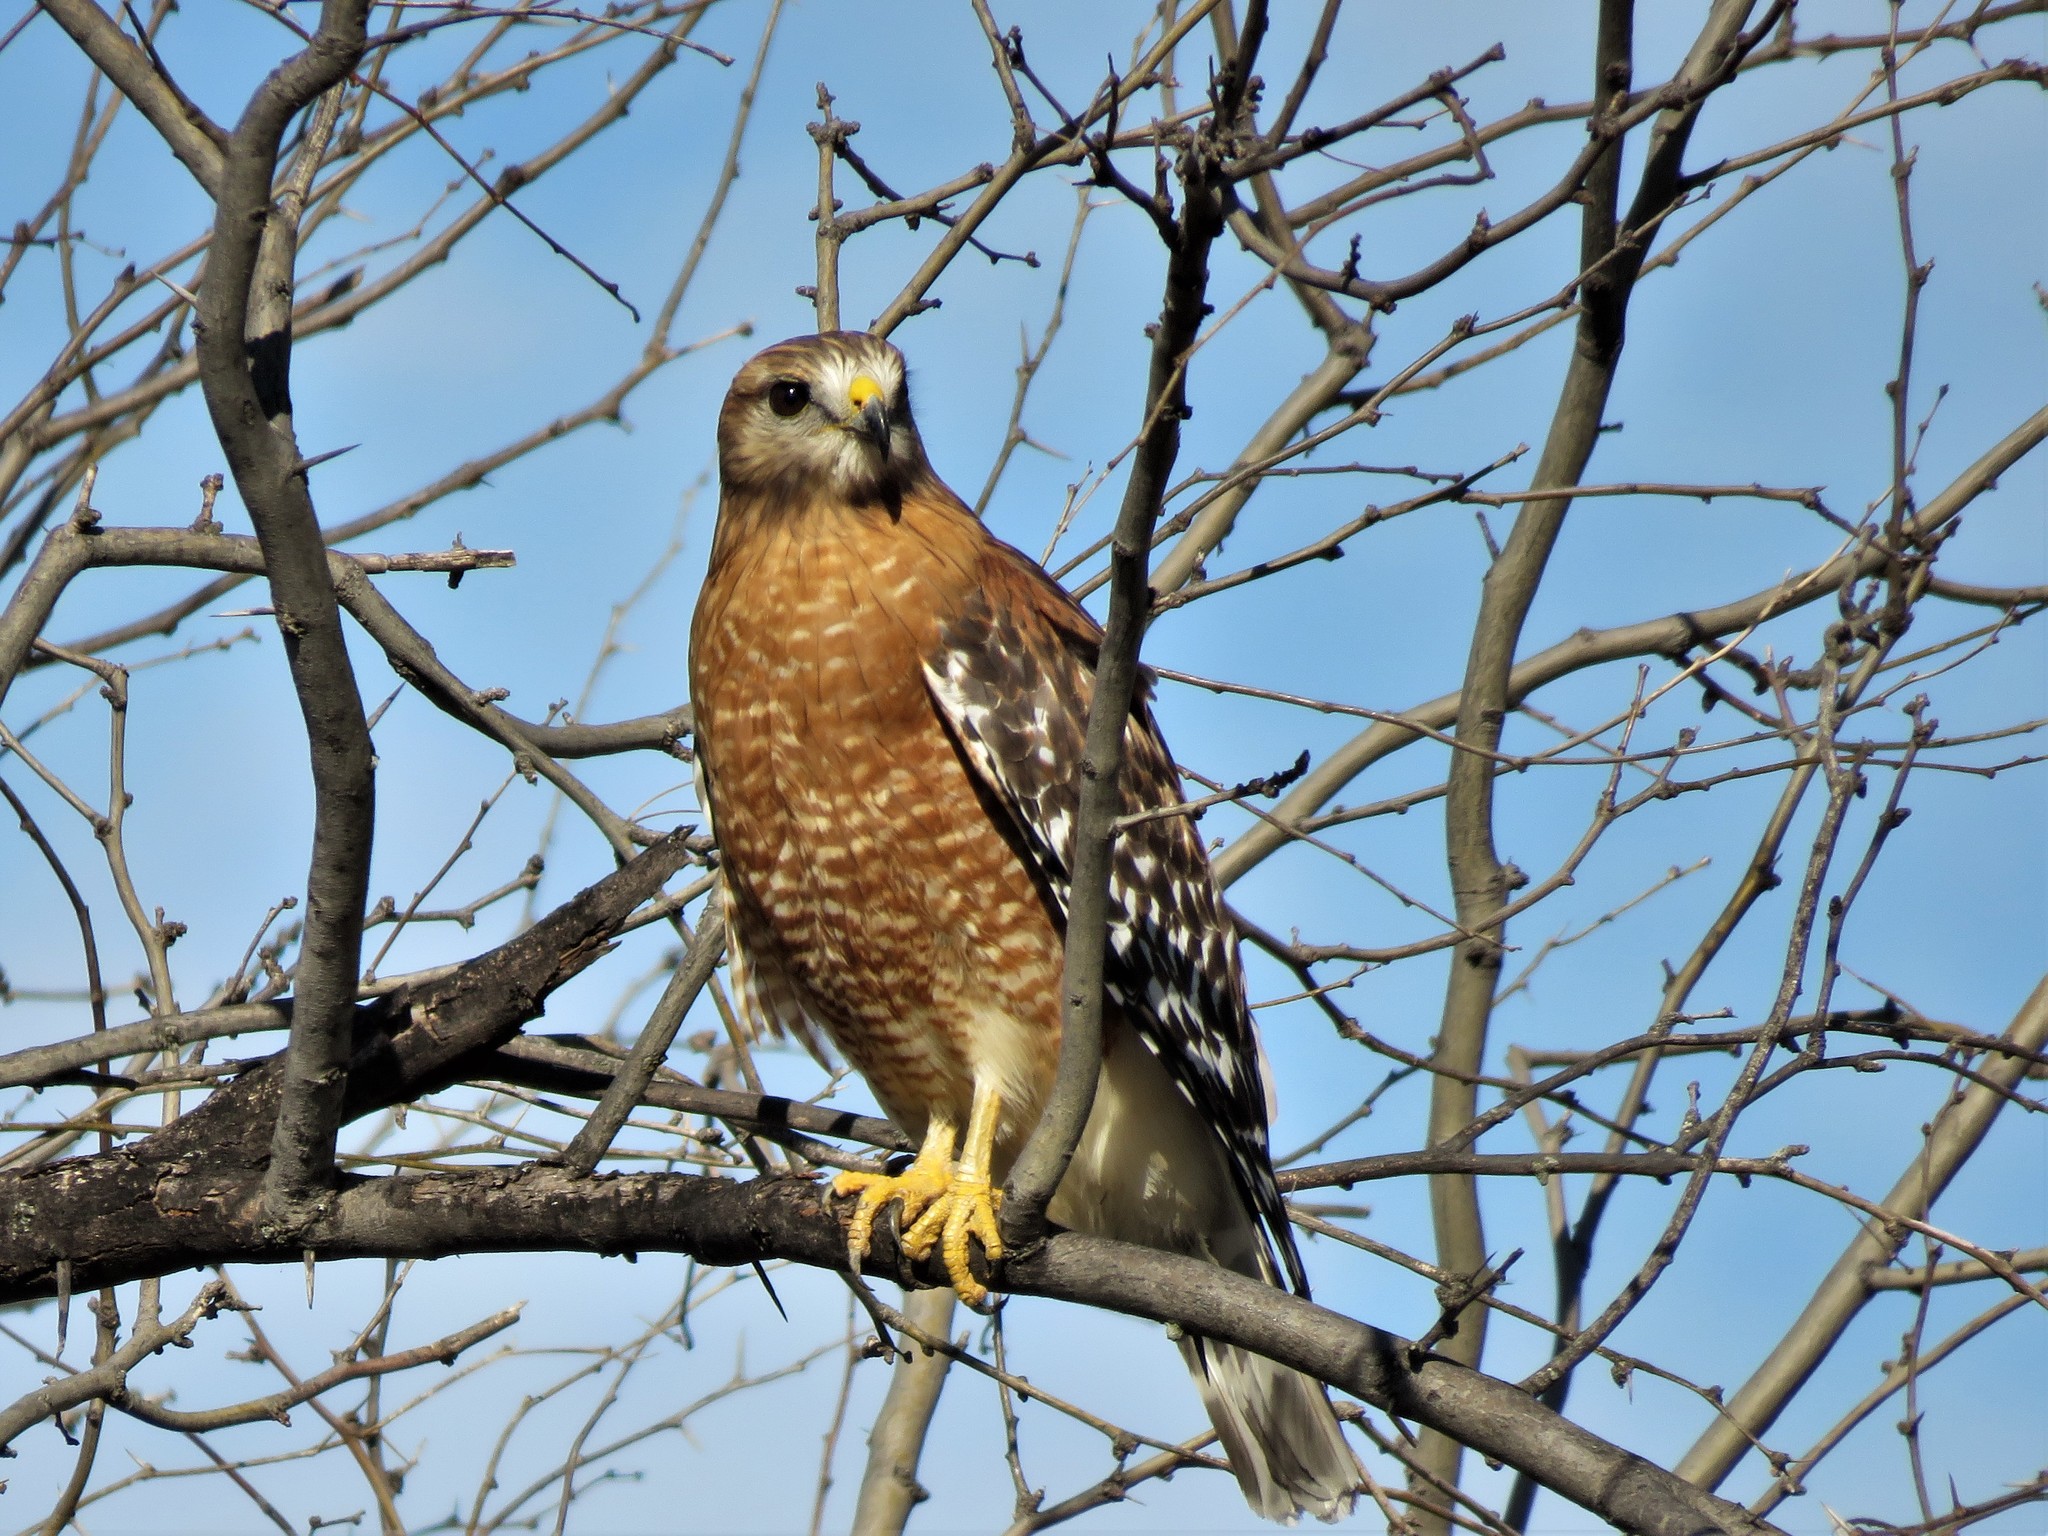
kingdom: Animalia
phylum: Chordata
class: Aves
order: Accipitriformes
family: Accipitridae
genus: Buteo
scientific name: Buteo lineatus
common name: Red-shouldered hawk
